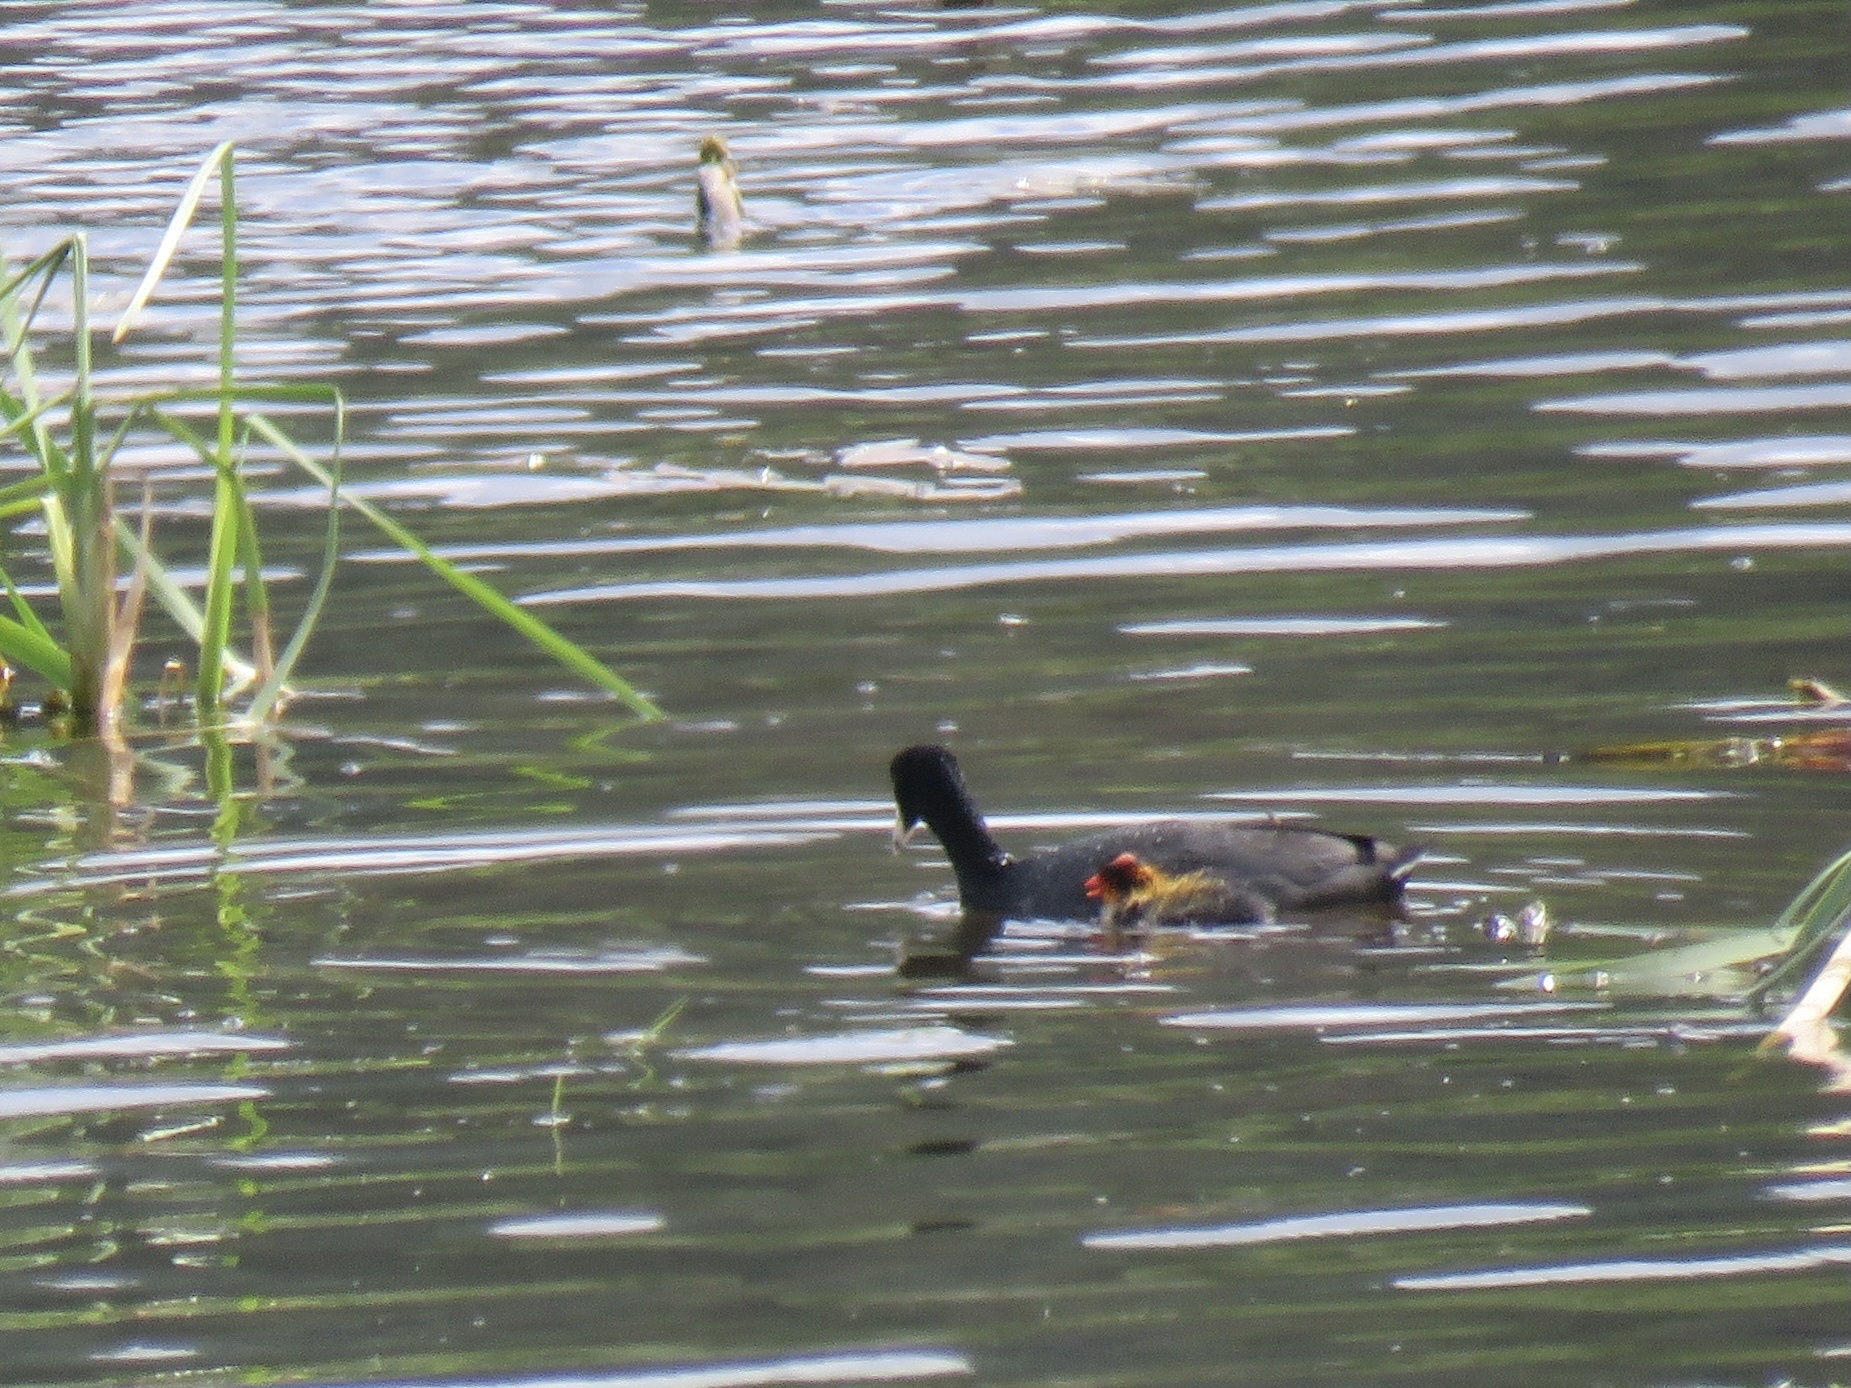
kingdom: Animalia
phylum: Chordata
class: Aves
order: Gruiformes
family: Rallidae
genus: Fulica
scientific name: Fulica americana
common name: American coot
